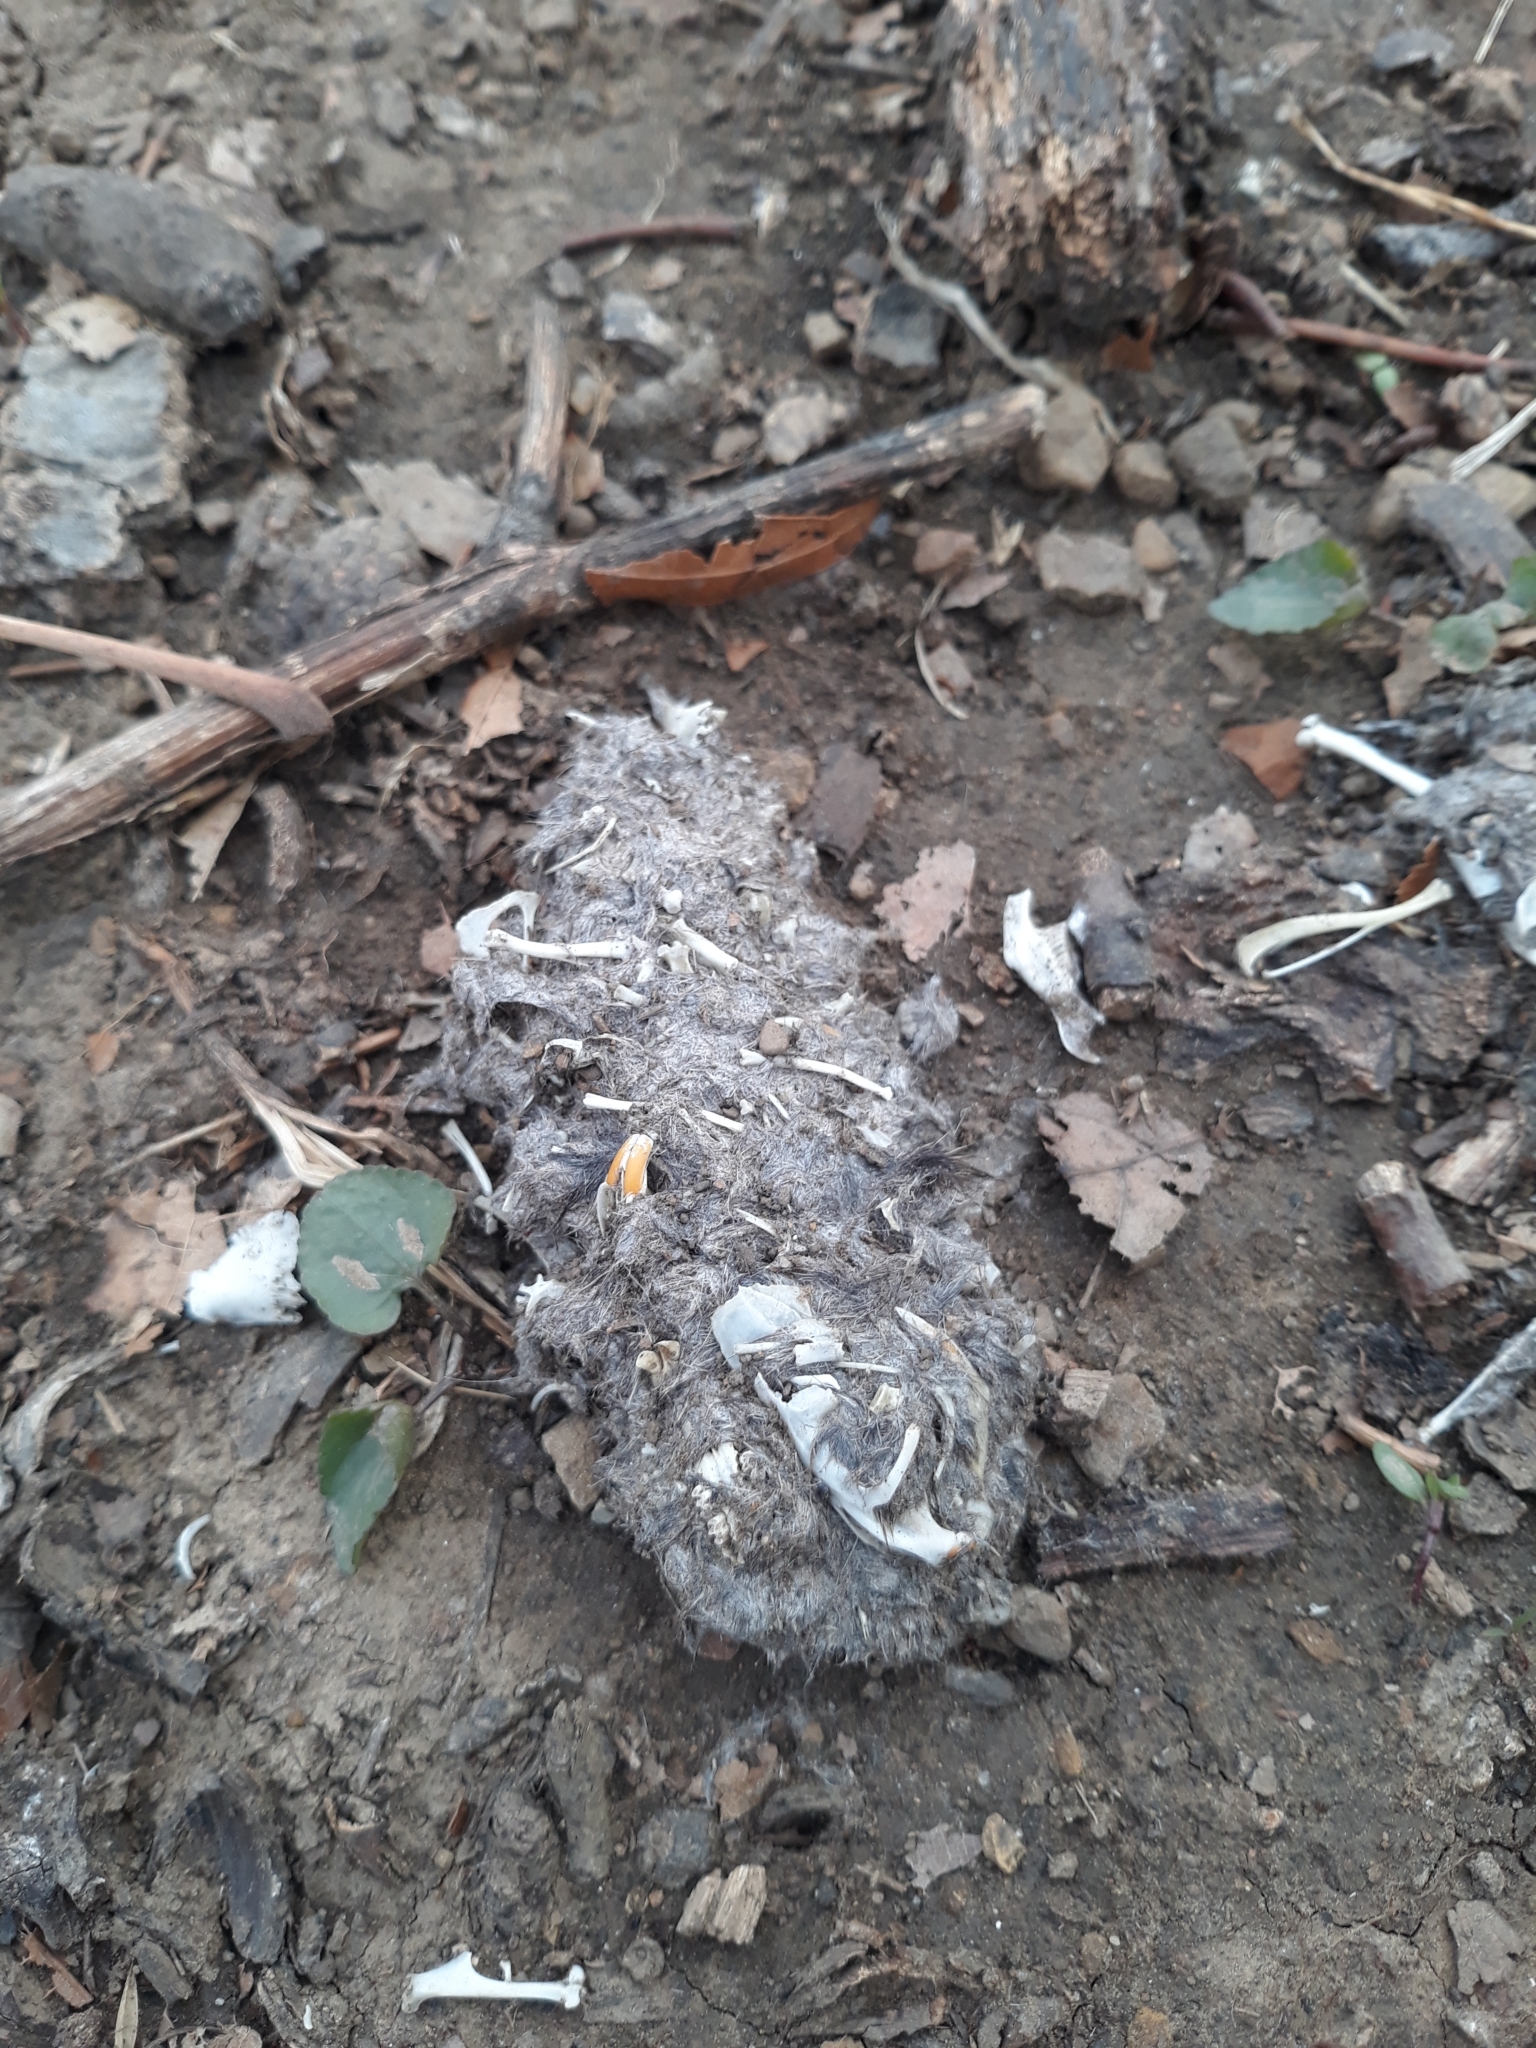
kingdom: Animalia
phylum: Chordata
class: Aves
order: Strigiformes
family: Strigidae
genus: Bubo
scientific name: Bubo virginianus
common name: Great horned owl
